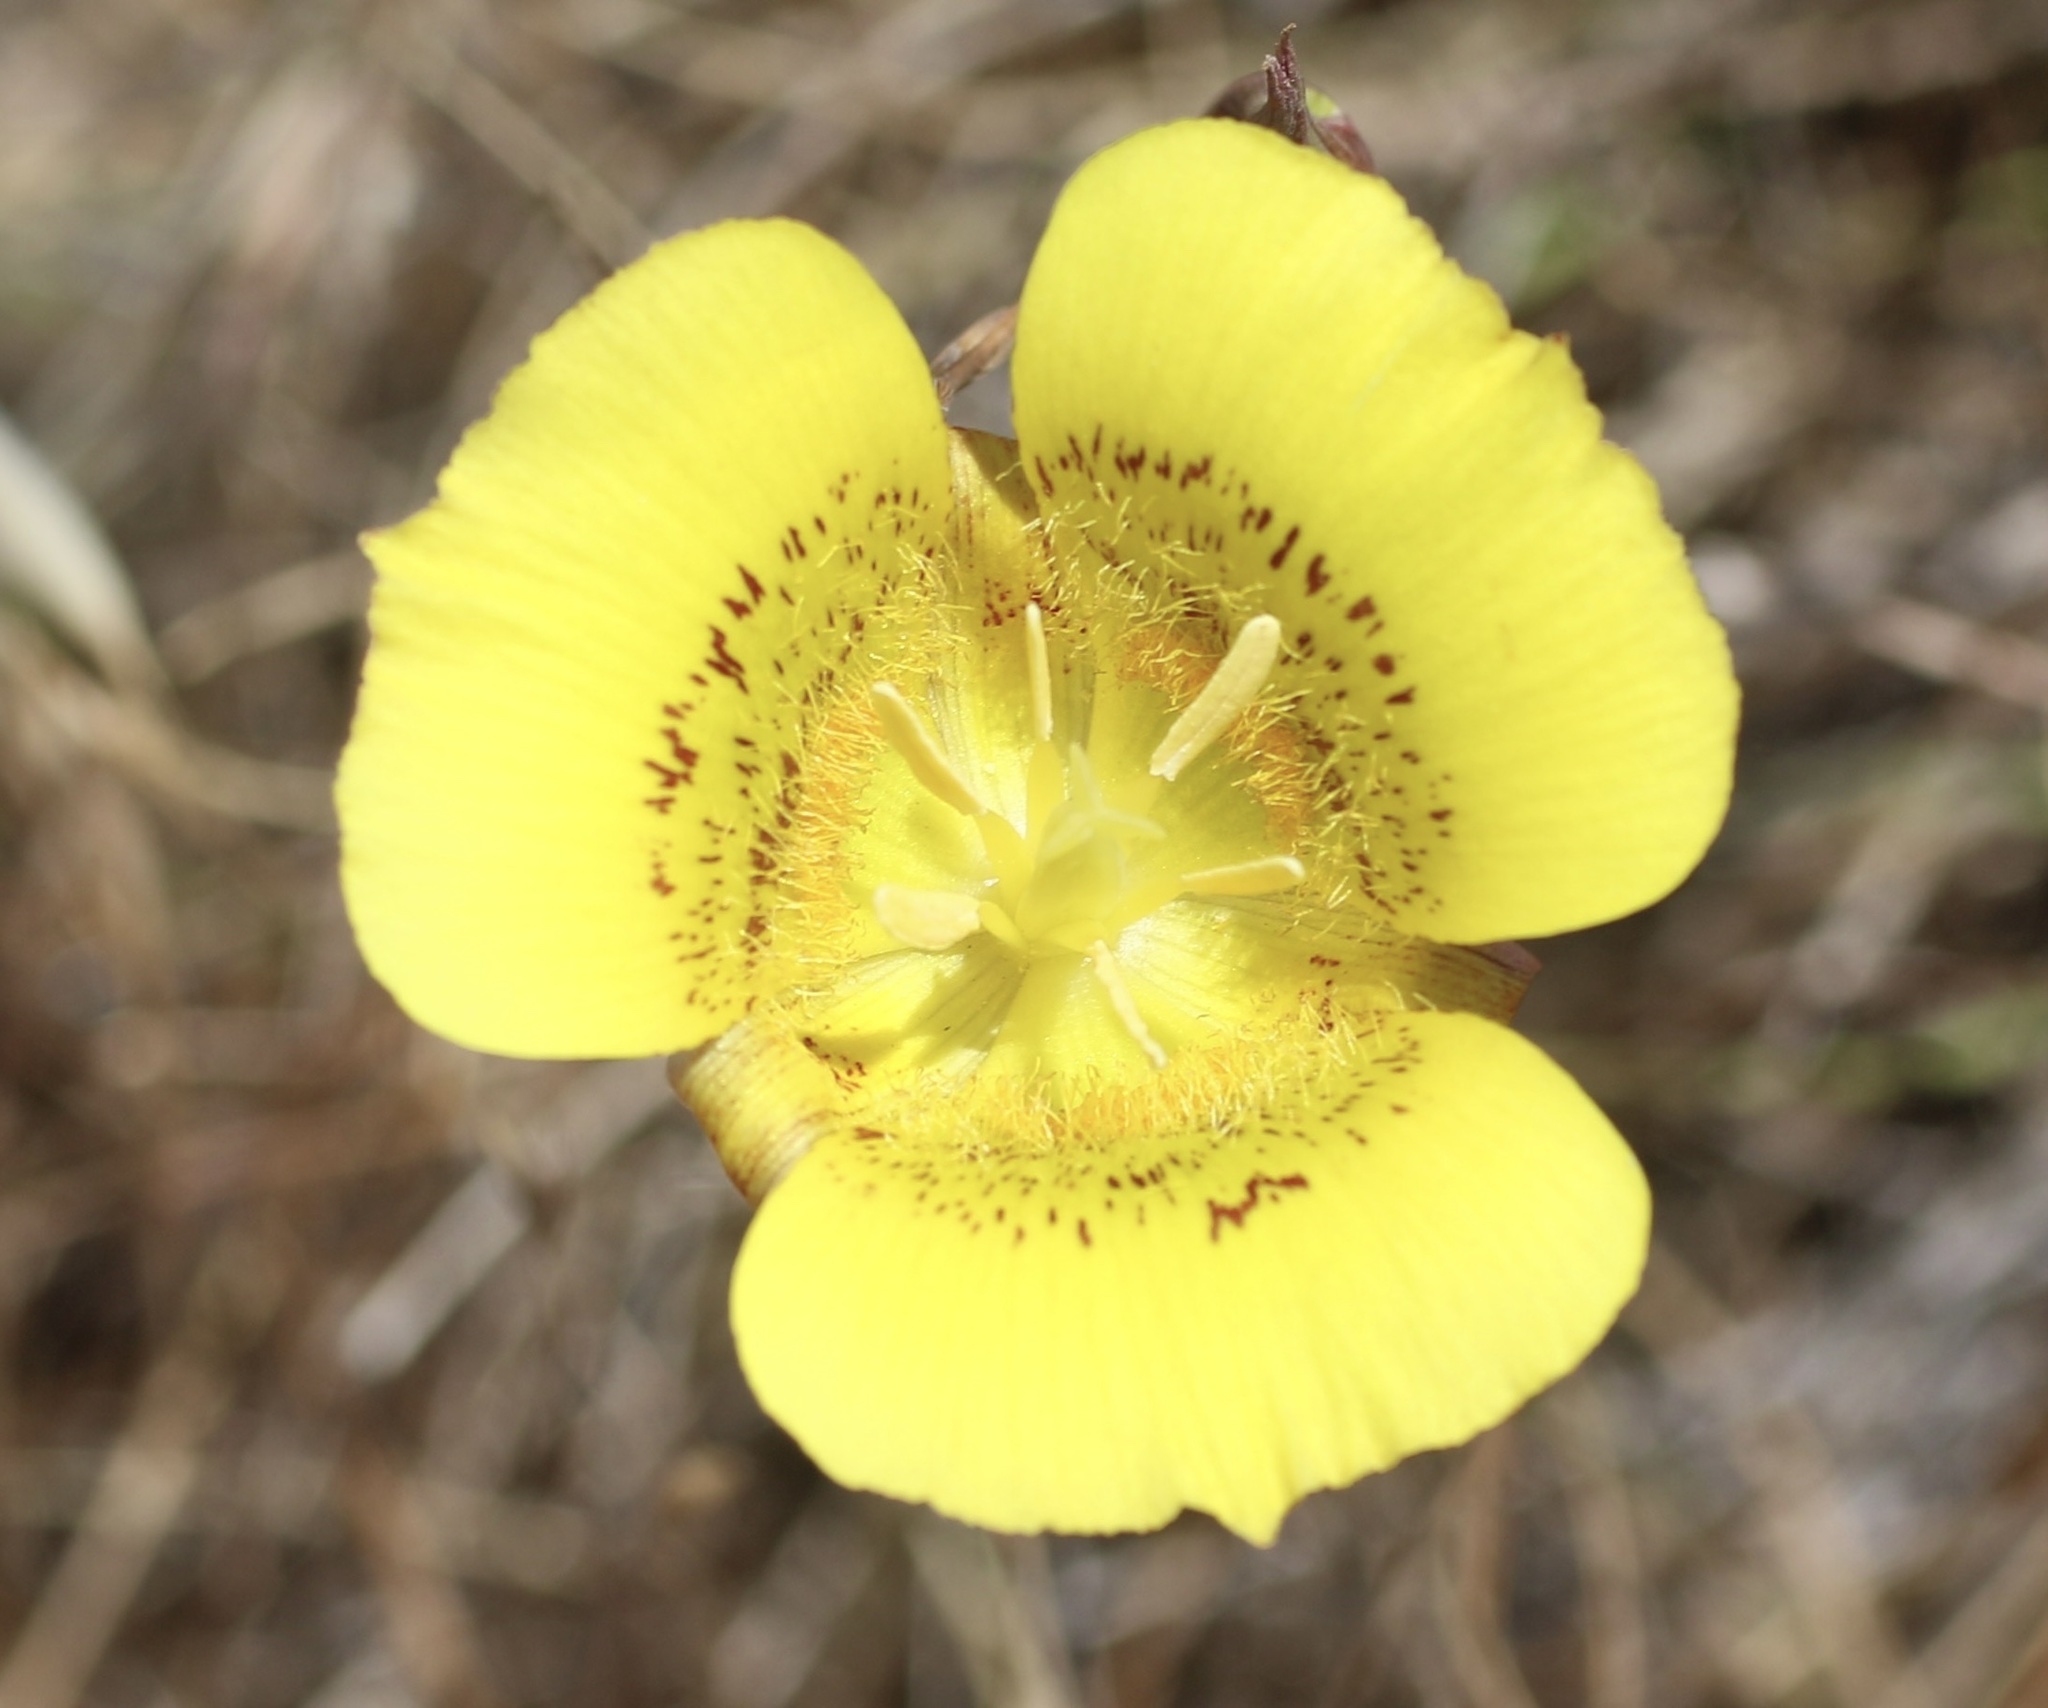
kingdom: Plantae
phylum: Tracheophyta
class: Liliopsida
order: Liliales
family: Liliaceae
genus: Calochortus
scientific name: Calochortus luteus
